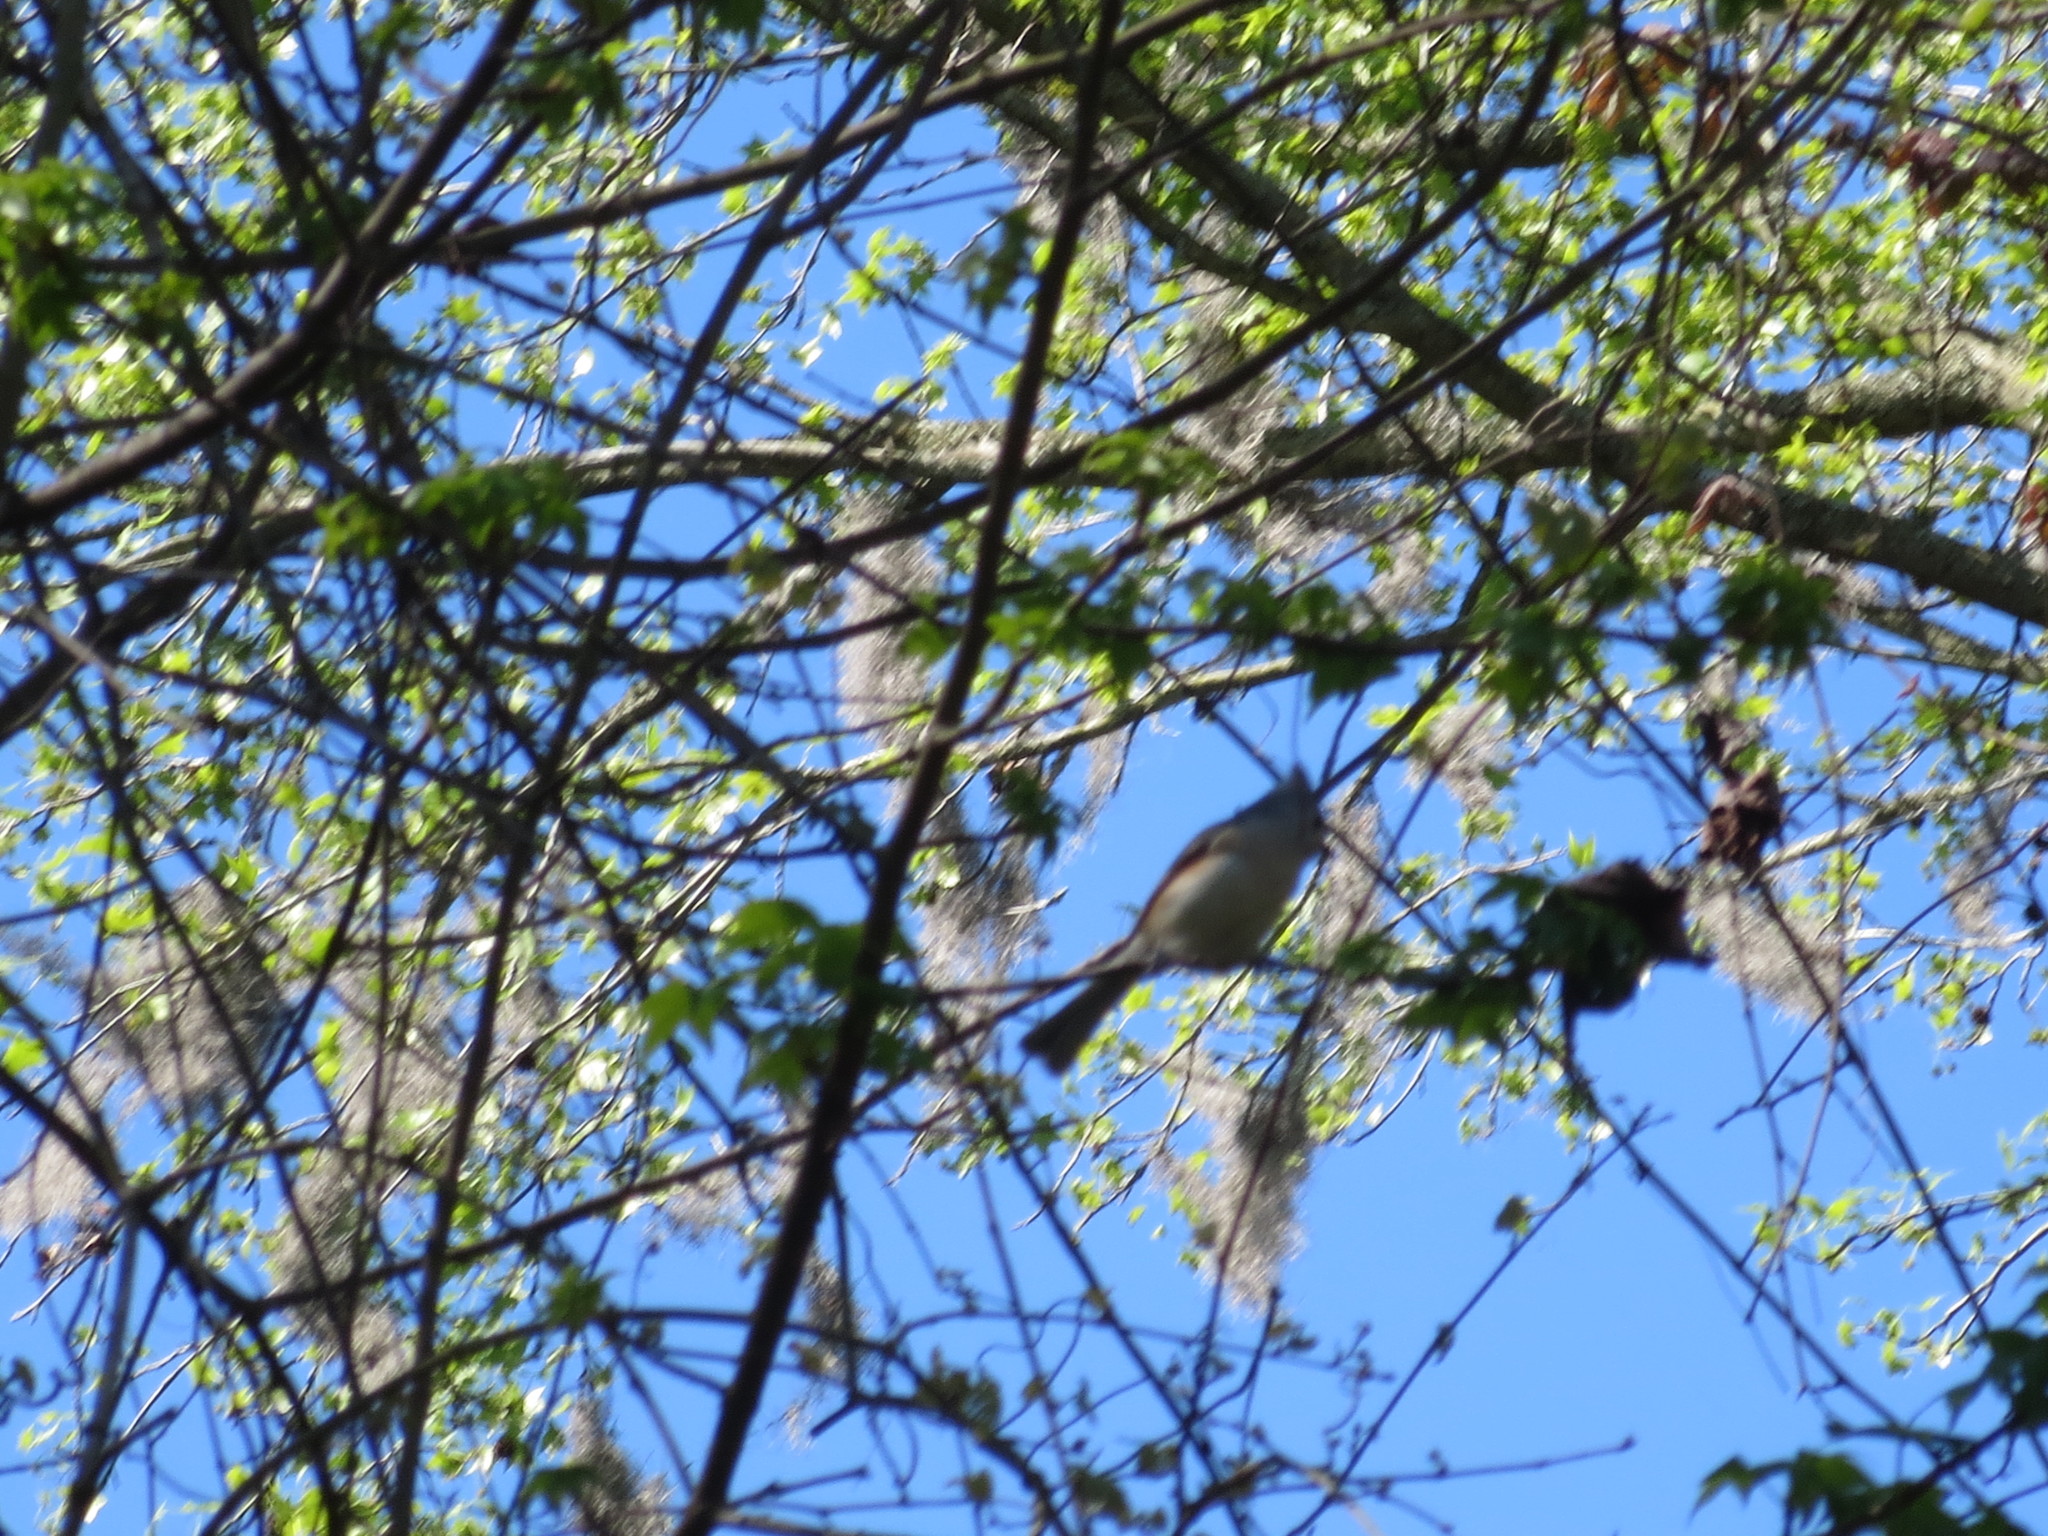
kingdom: Animalia
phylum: Chordata
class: Aves
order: Passeriformes
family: Paridae
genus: Baeolophus
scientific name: Baeolophus bicolor
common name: Tufted titmouse
